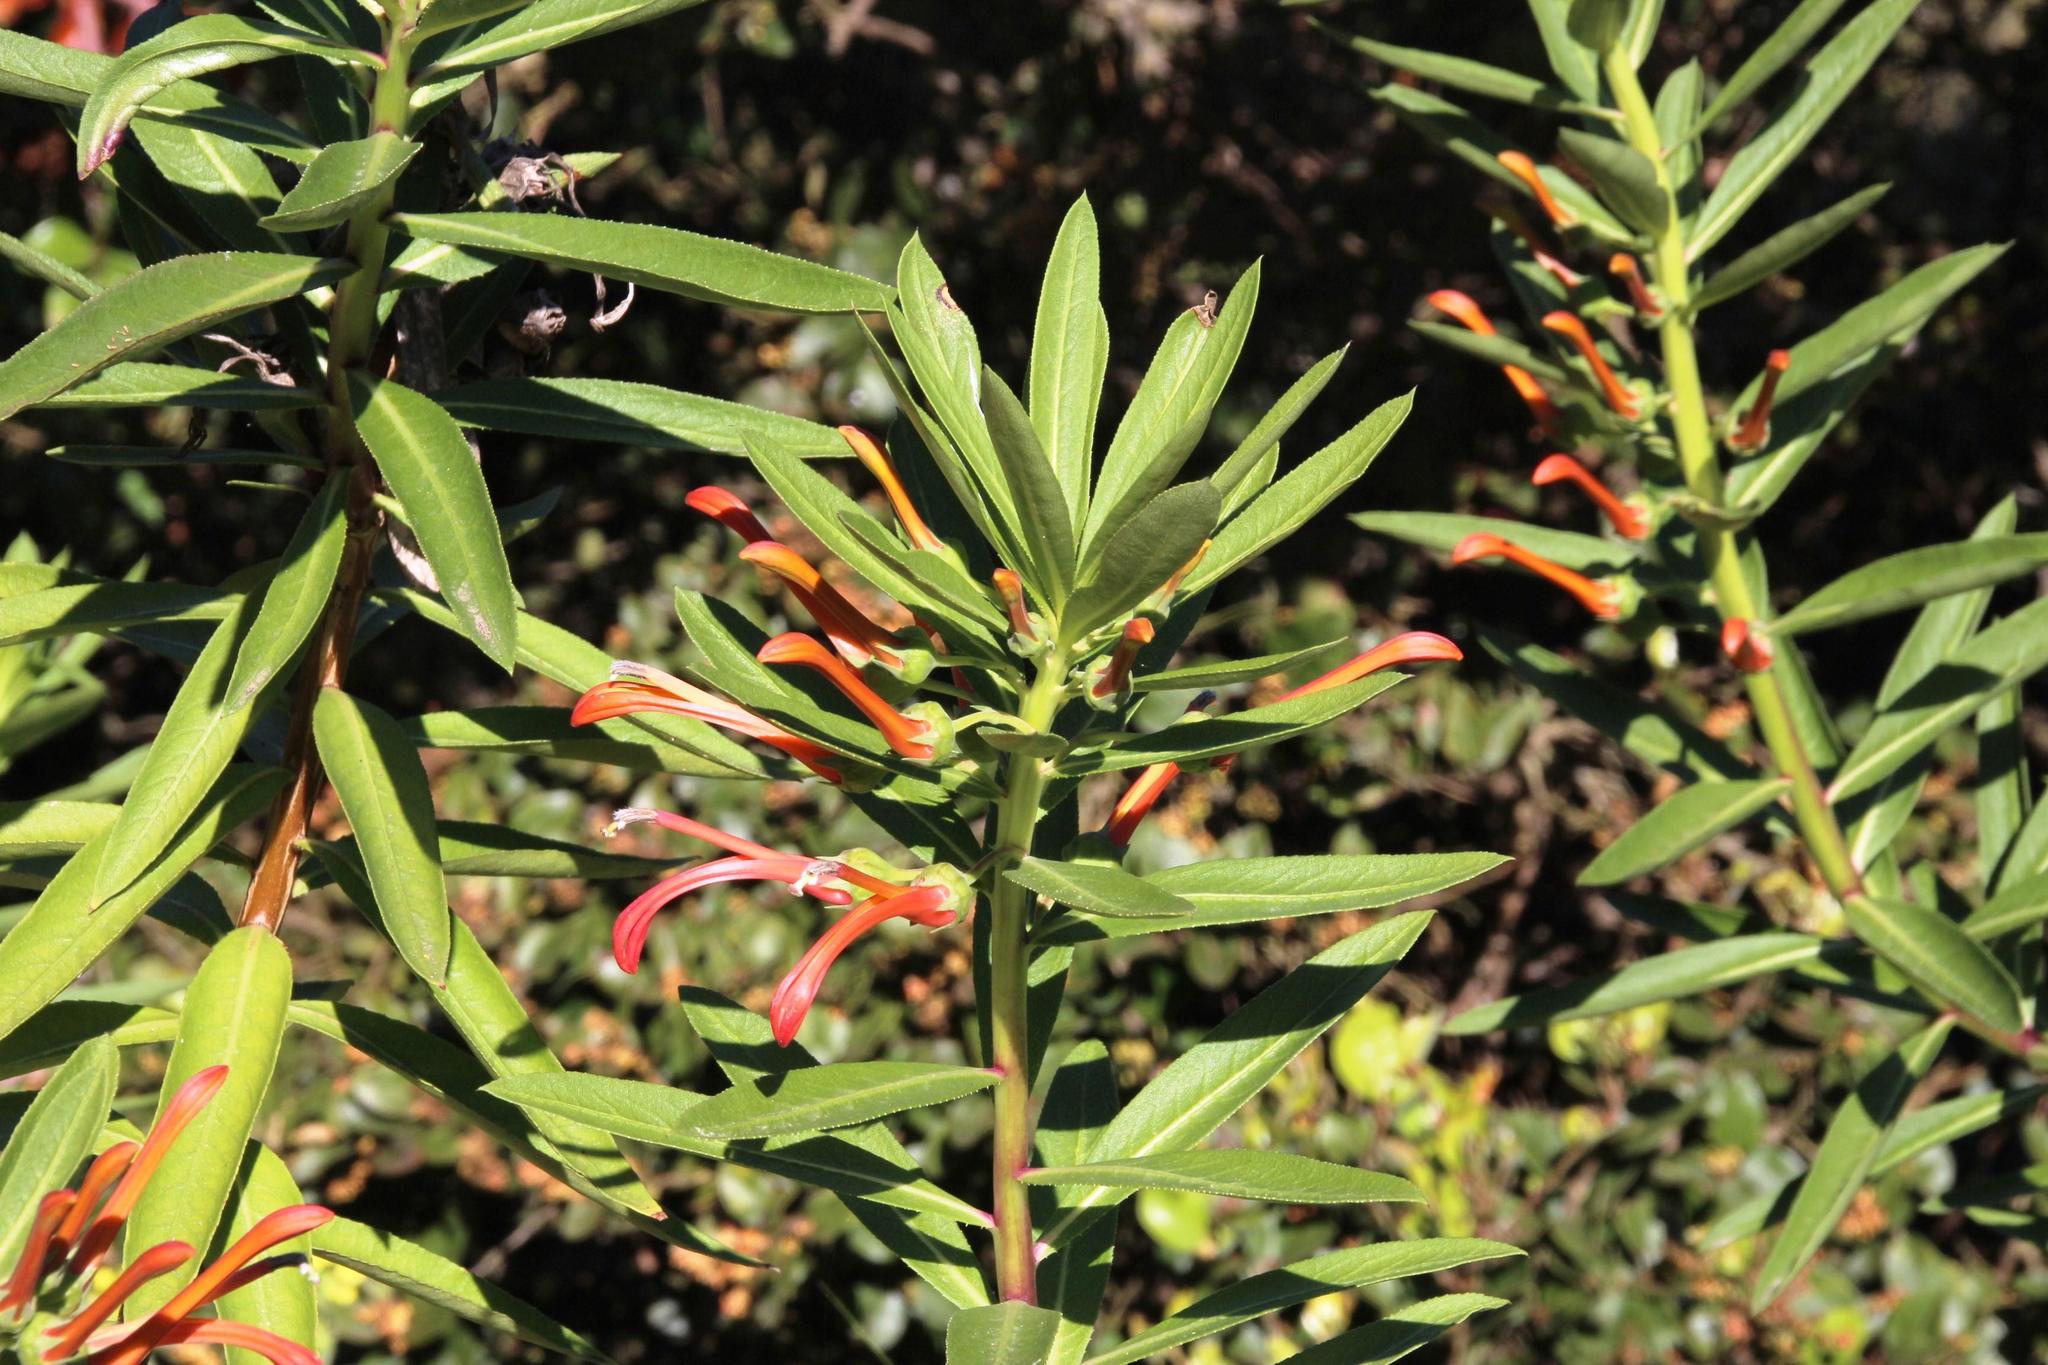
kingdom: Plantae
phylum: Tracheophyta
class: Magnoliopsida
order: Asterales
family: Campanulaceae
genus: Lobelia
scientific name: Lobelia excelsa
